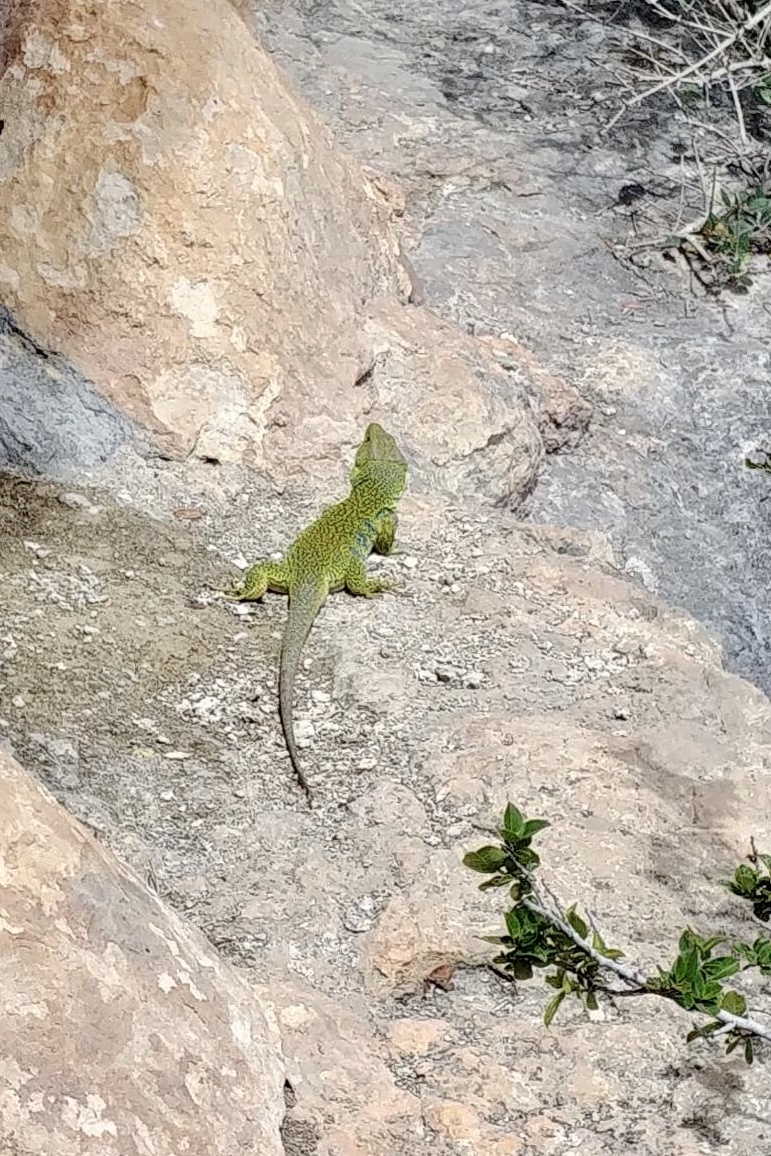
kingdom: Animalia
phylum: Chordata
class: Squamata
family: Lacertidae
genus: Timon
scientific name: Timon lepidus
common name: Ocellated lizard
